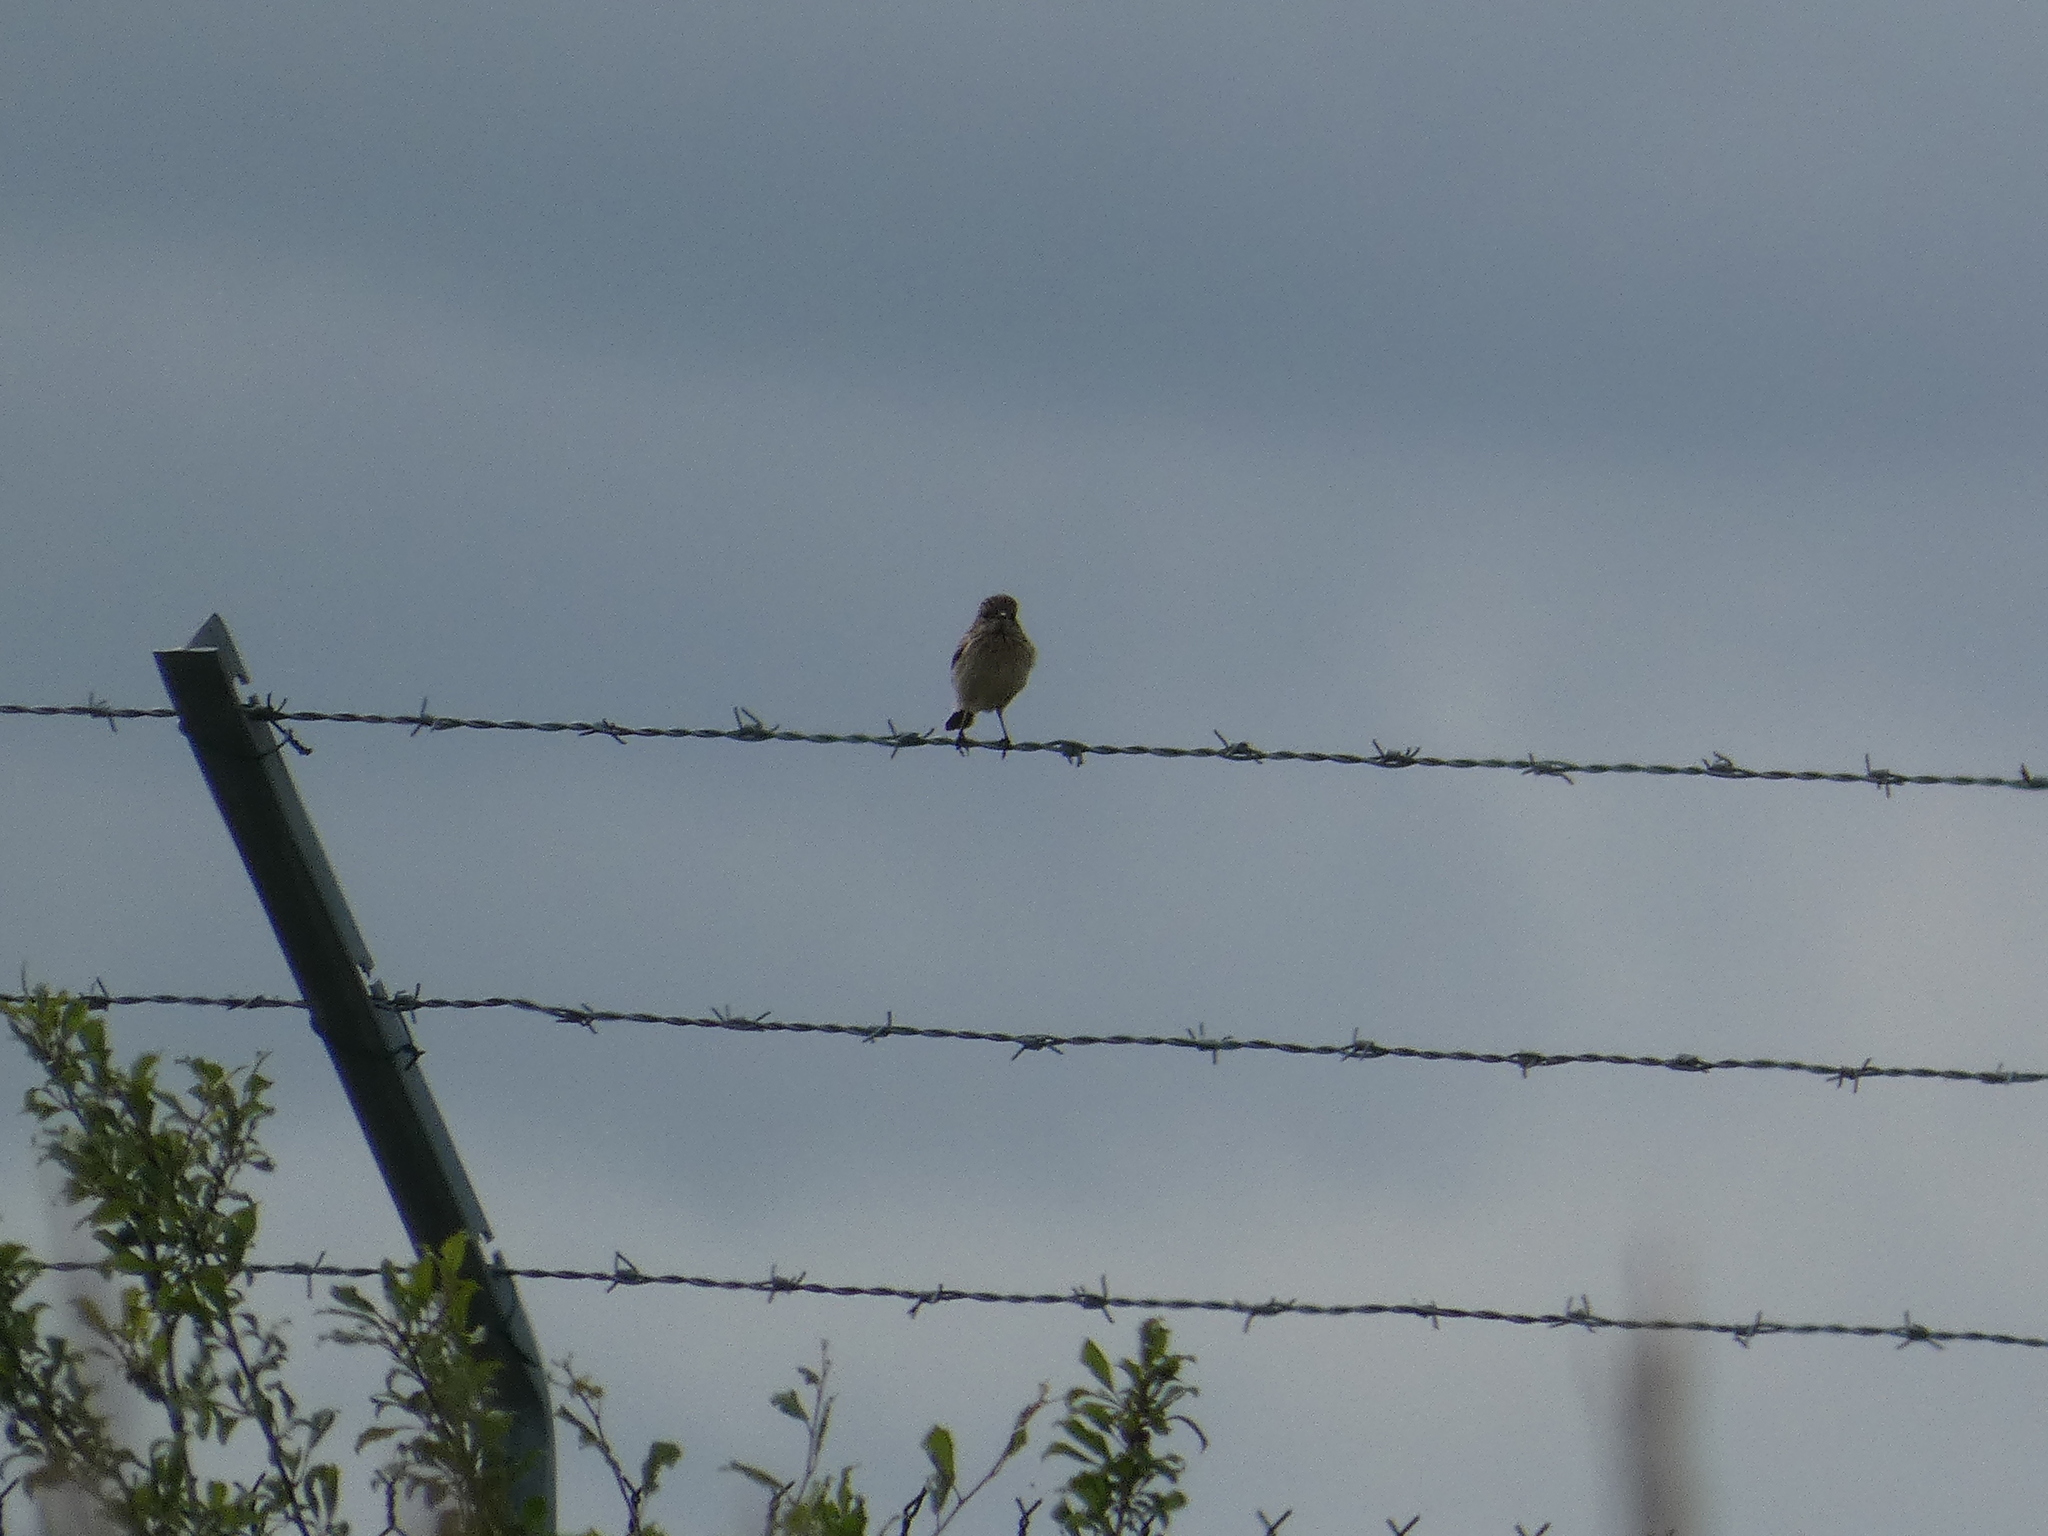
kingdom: Animalia
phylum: Chordata
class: Aves
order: Passeriformes
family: Muscicapidae
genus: Saxicola
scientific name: Saxicola rubicola
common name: European stonechat
